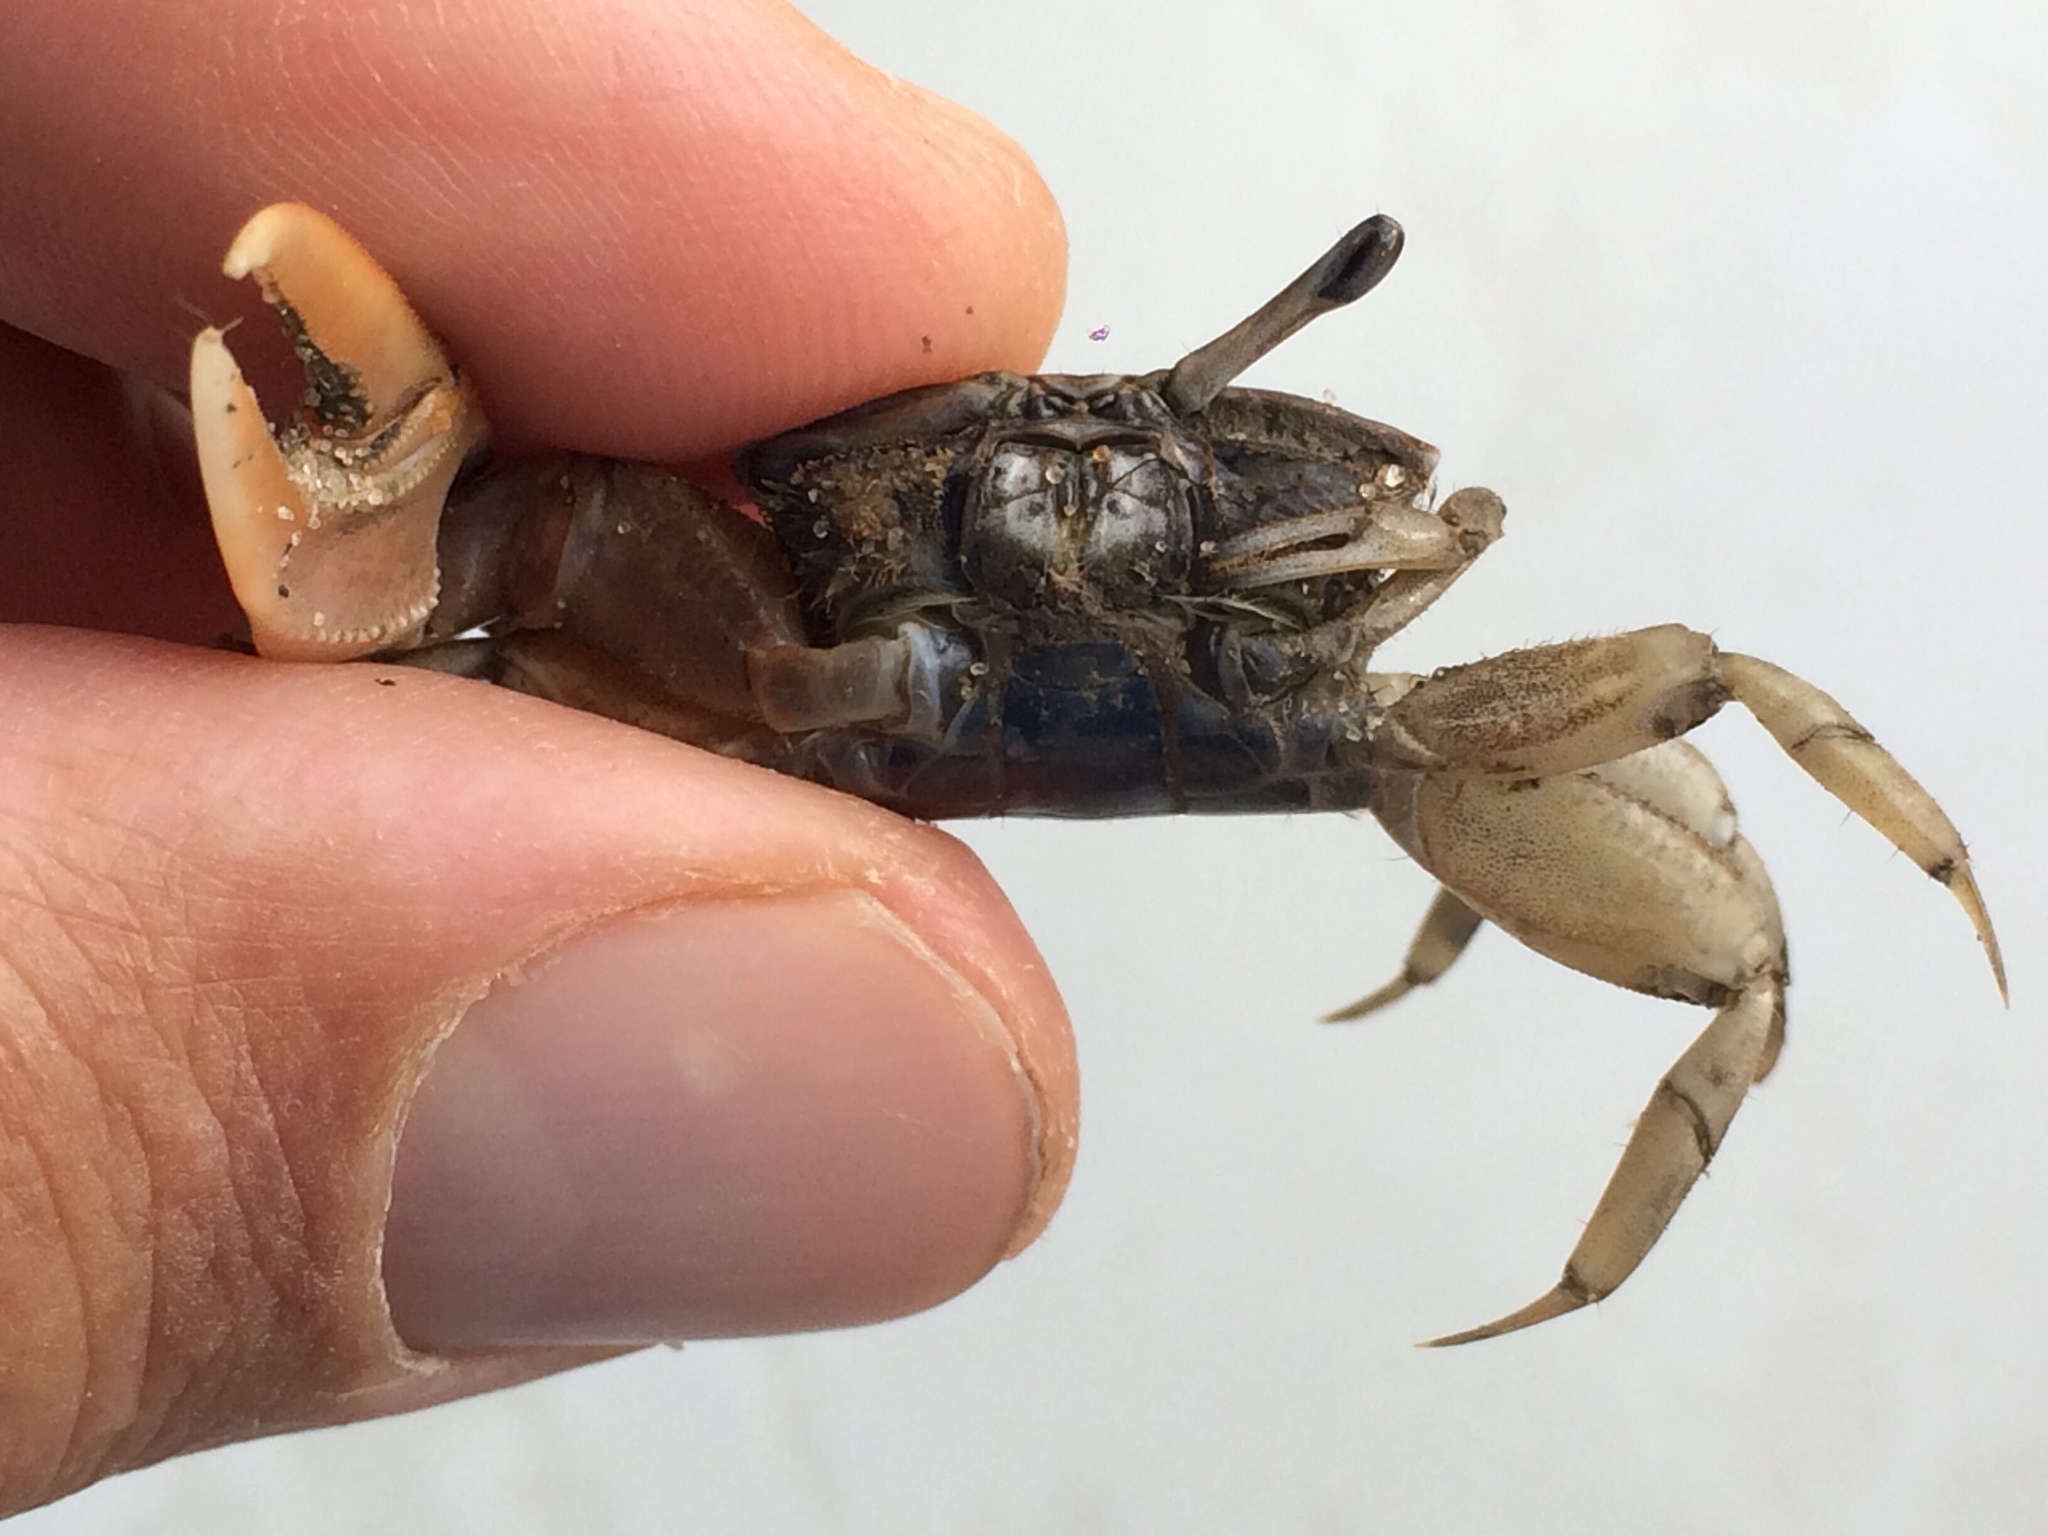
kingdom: Animalia
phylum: Arthropoda
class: Malacostraca
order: Decapoda
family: Ocypodidae
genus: Leptuca
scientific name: Leptuca thayeri
